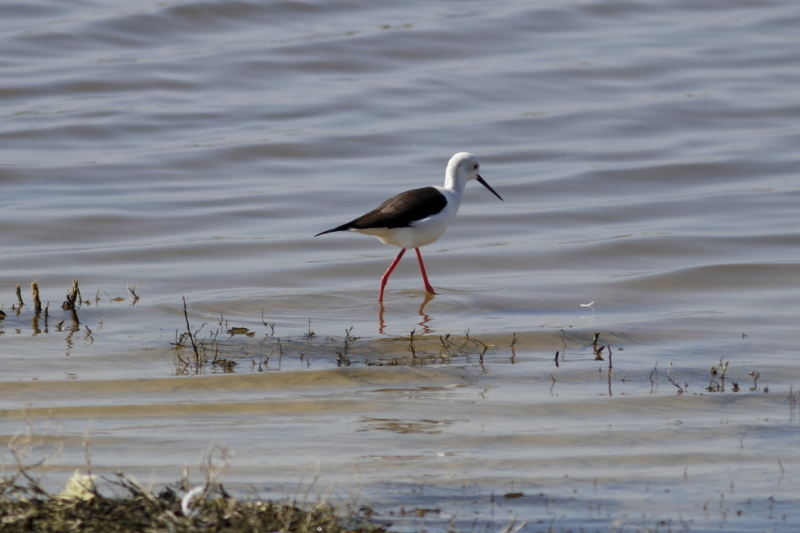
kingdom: Animalia
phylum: Chordata
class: Aves
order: Charadriiformes
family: Recurvirostridae
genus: Himantopus
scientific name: Himantopus himantopus
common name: Black-winged stilt
